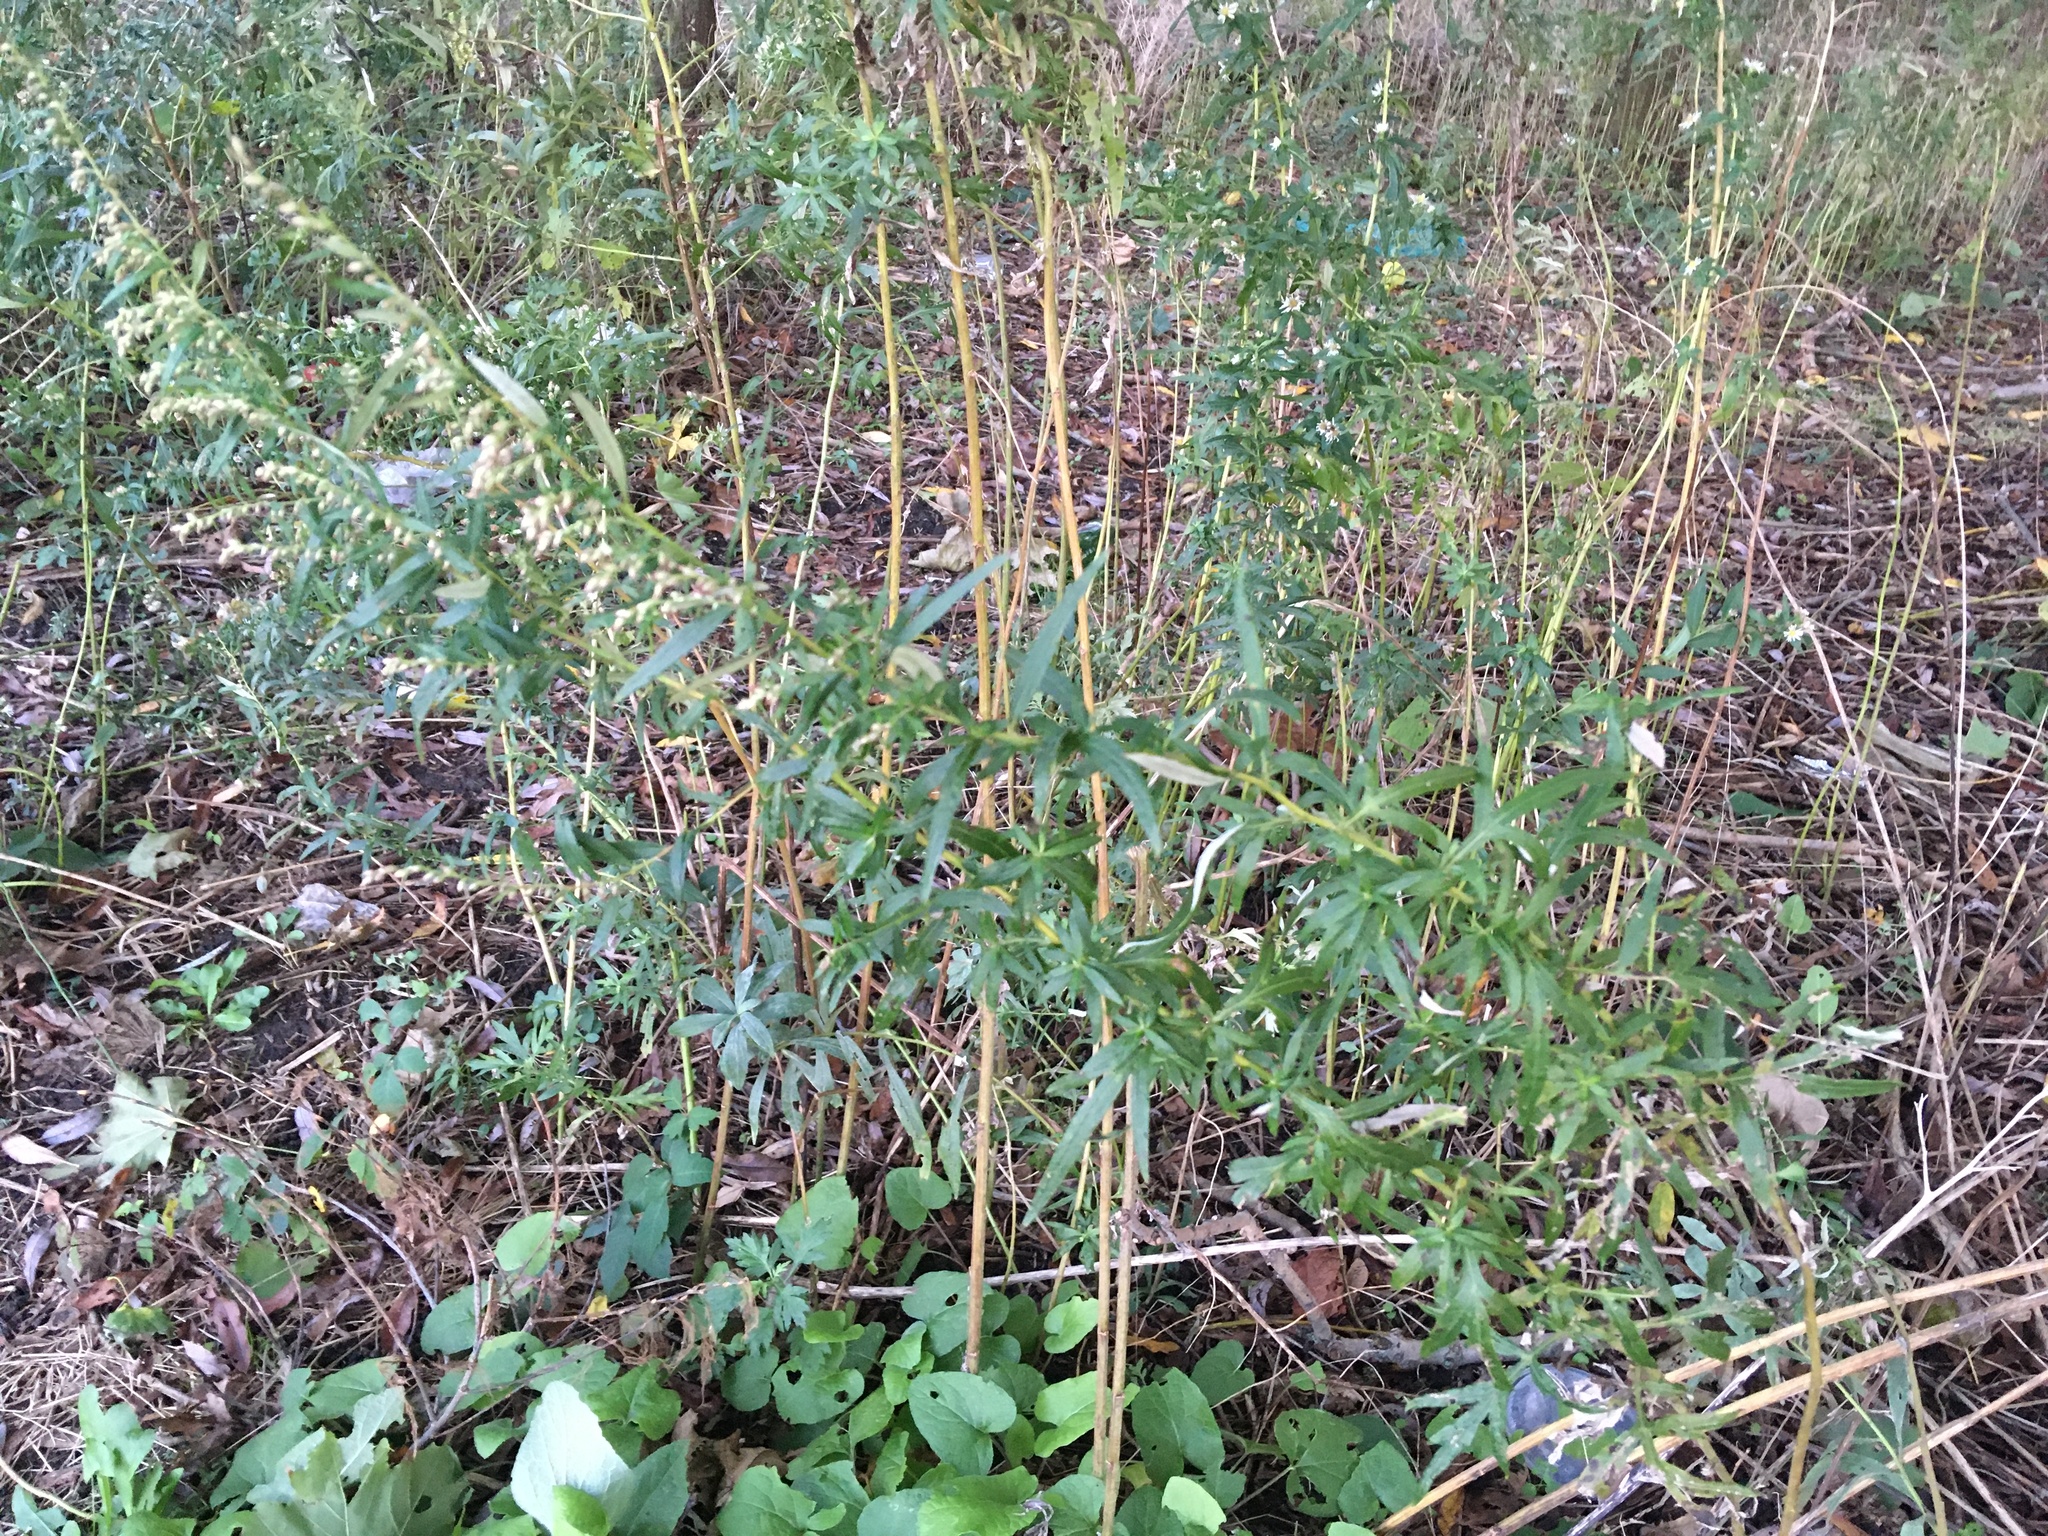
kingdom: Plantae
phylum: Tracheophyta
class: Magnoliopsida
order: Asterales
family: Asteraceae
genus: Artemisia
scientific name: Artemisia vulgaris
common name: Mugwort
